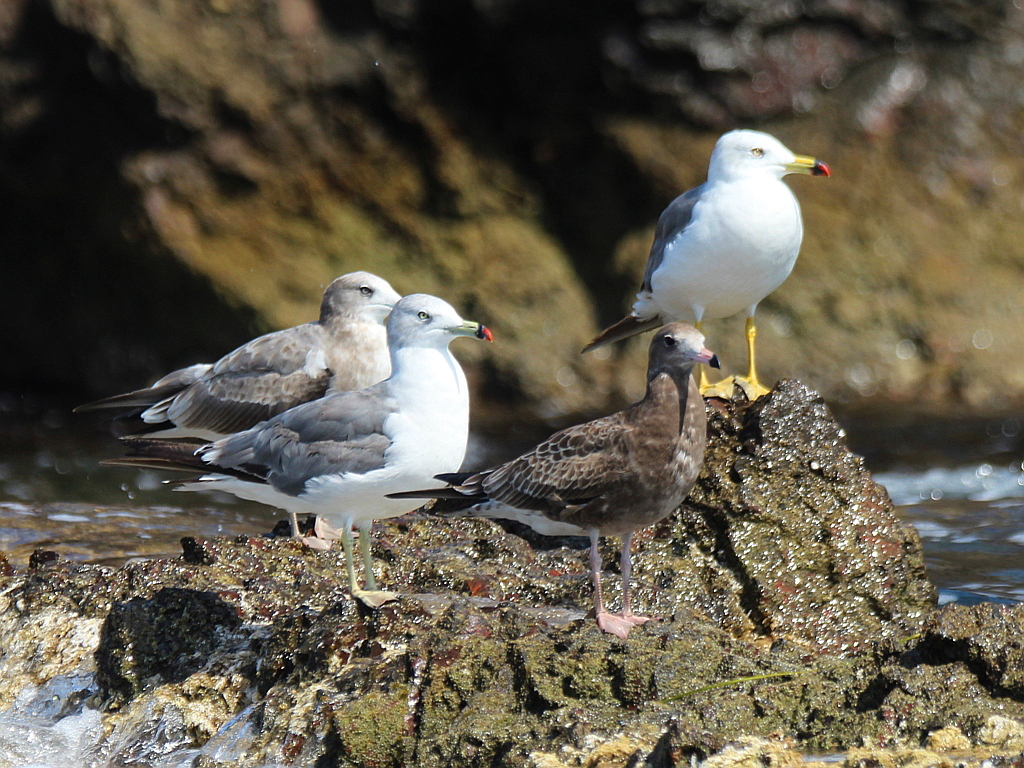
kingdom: Animalia
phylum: Chordata
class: Aves
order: Charadriiformes
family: Laridae
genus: Larus
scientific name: Larus crassirostris
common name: Black-tailed gull
